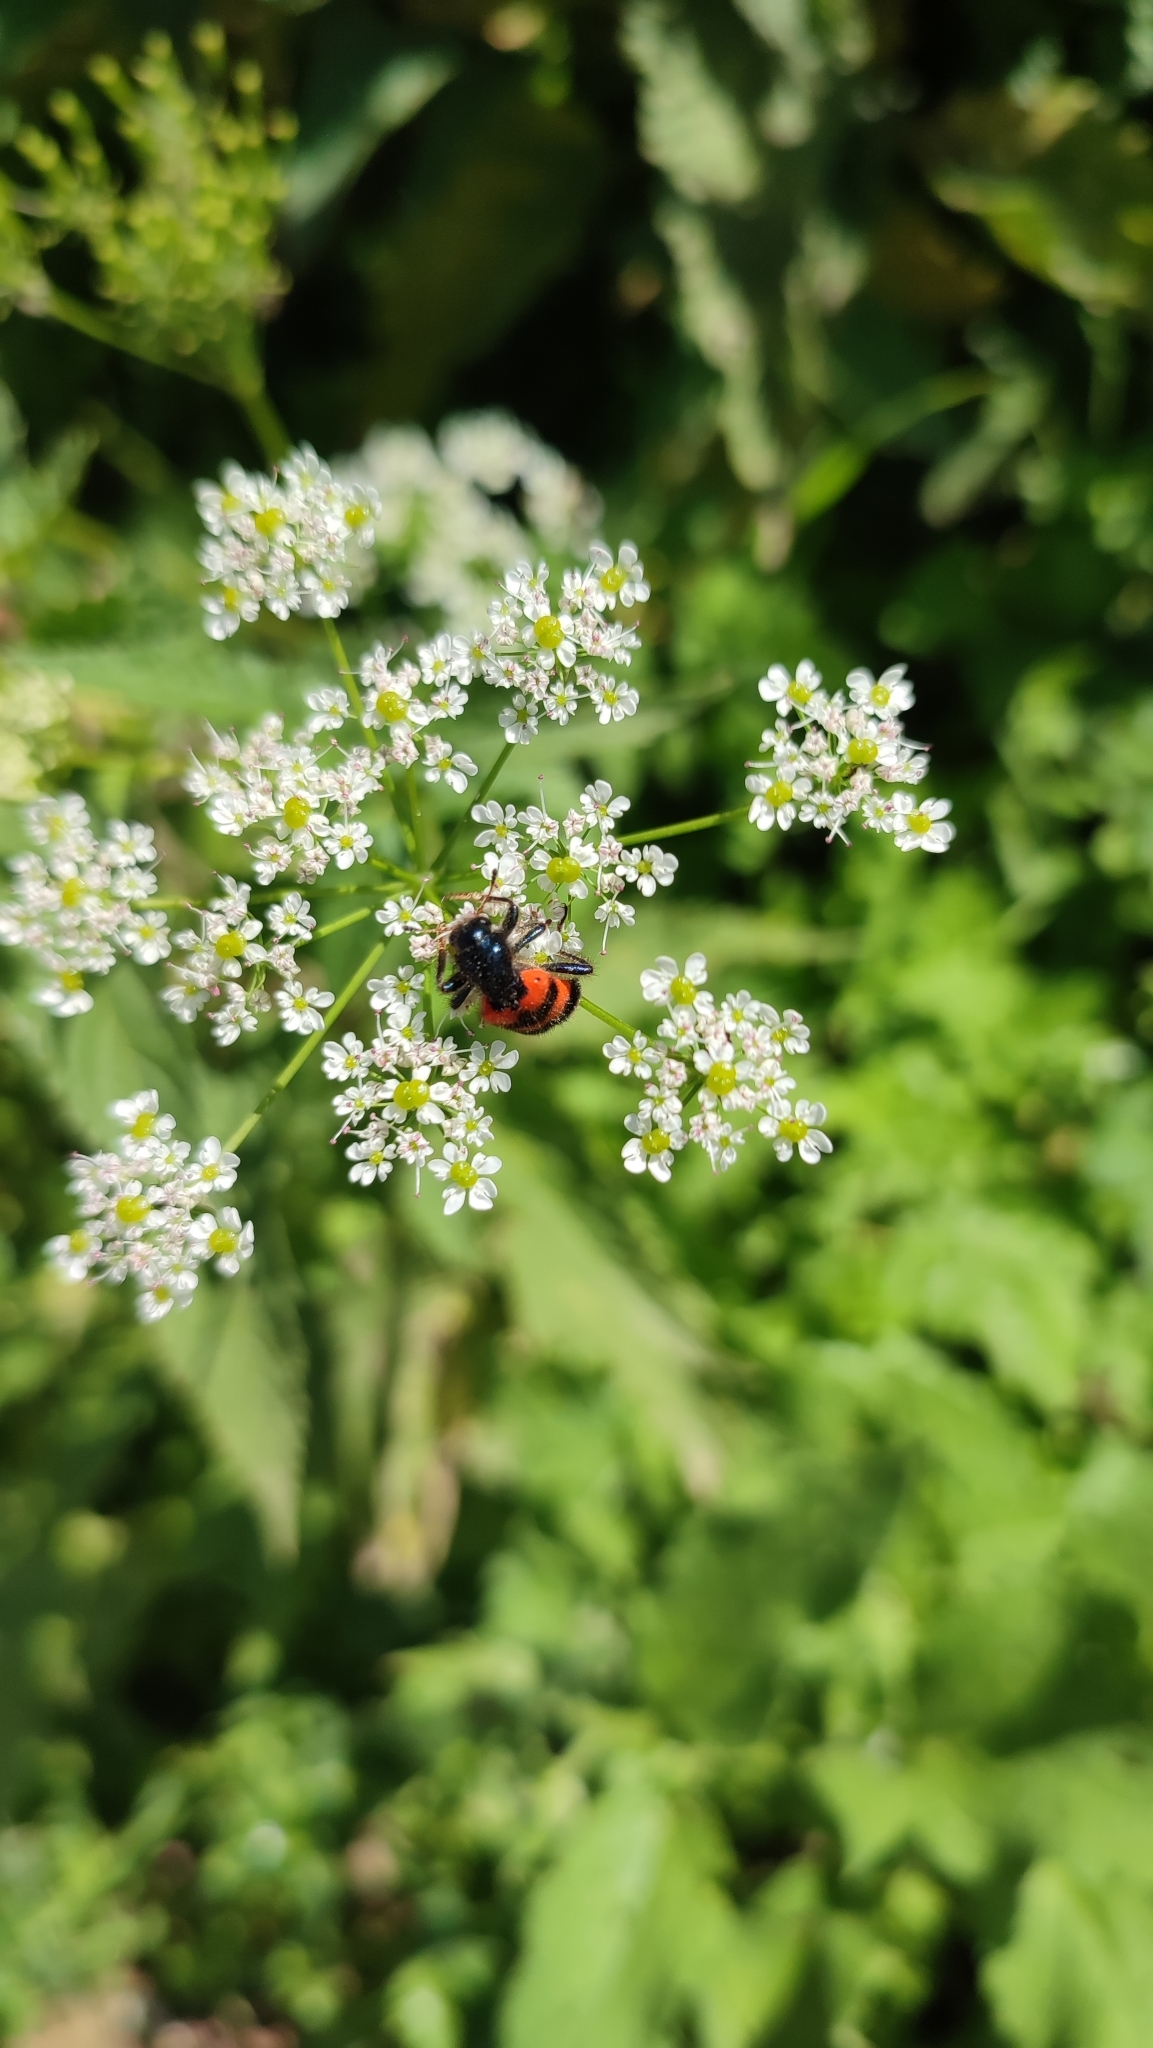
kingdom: Animalia
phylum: Arthropoda
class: Insecta
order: Coleoptera
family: Cleridae
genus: Trichodes
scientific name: Trichodes apiarius
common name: Bee-eating beetle
